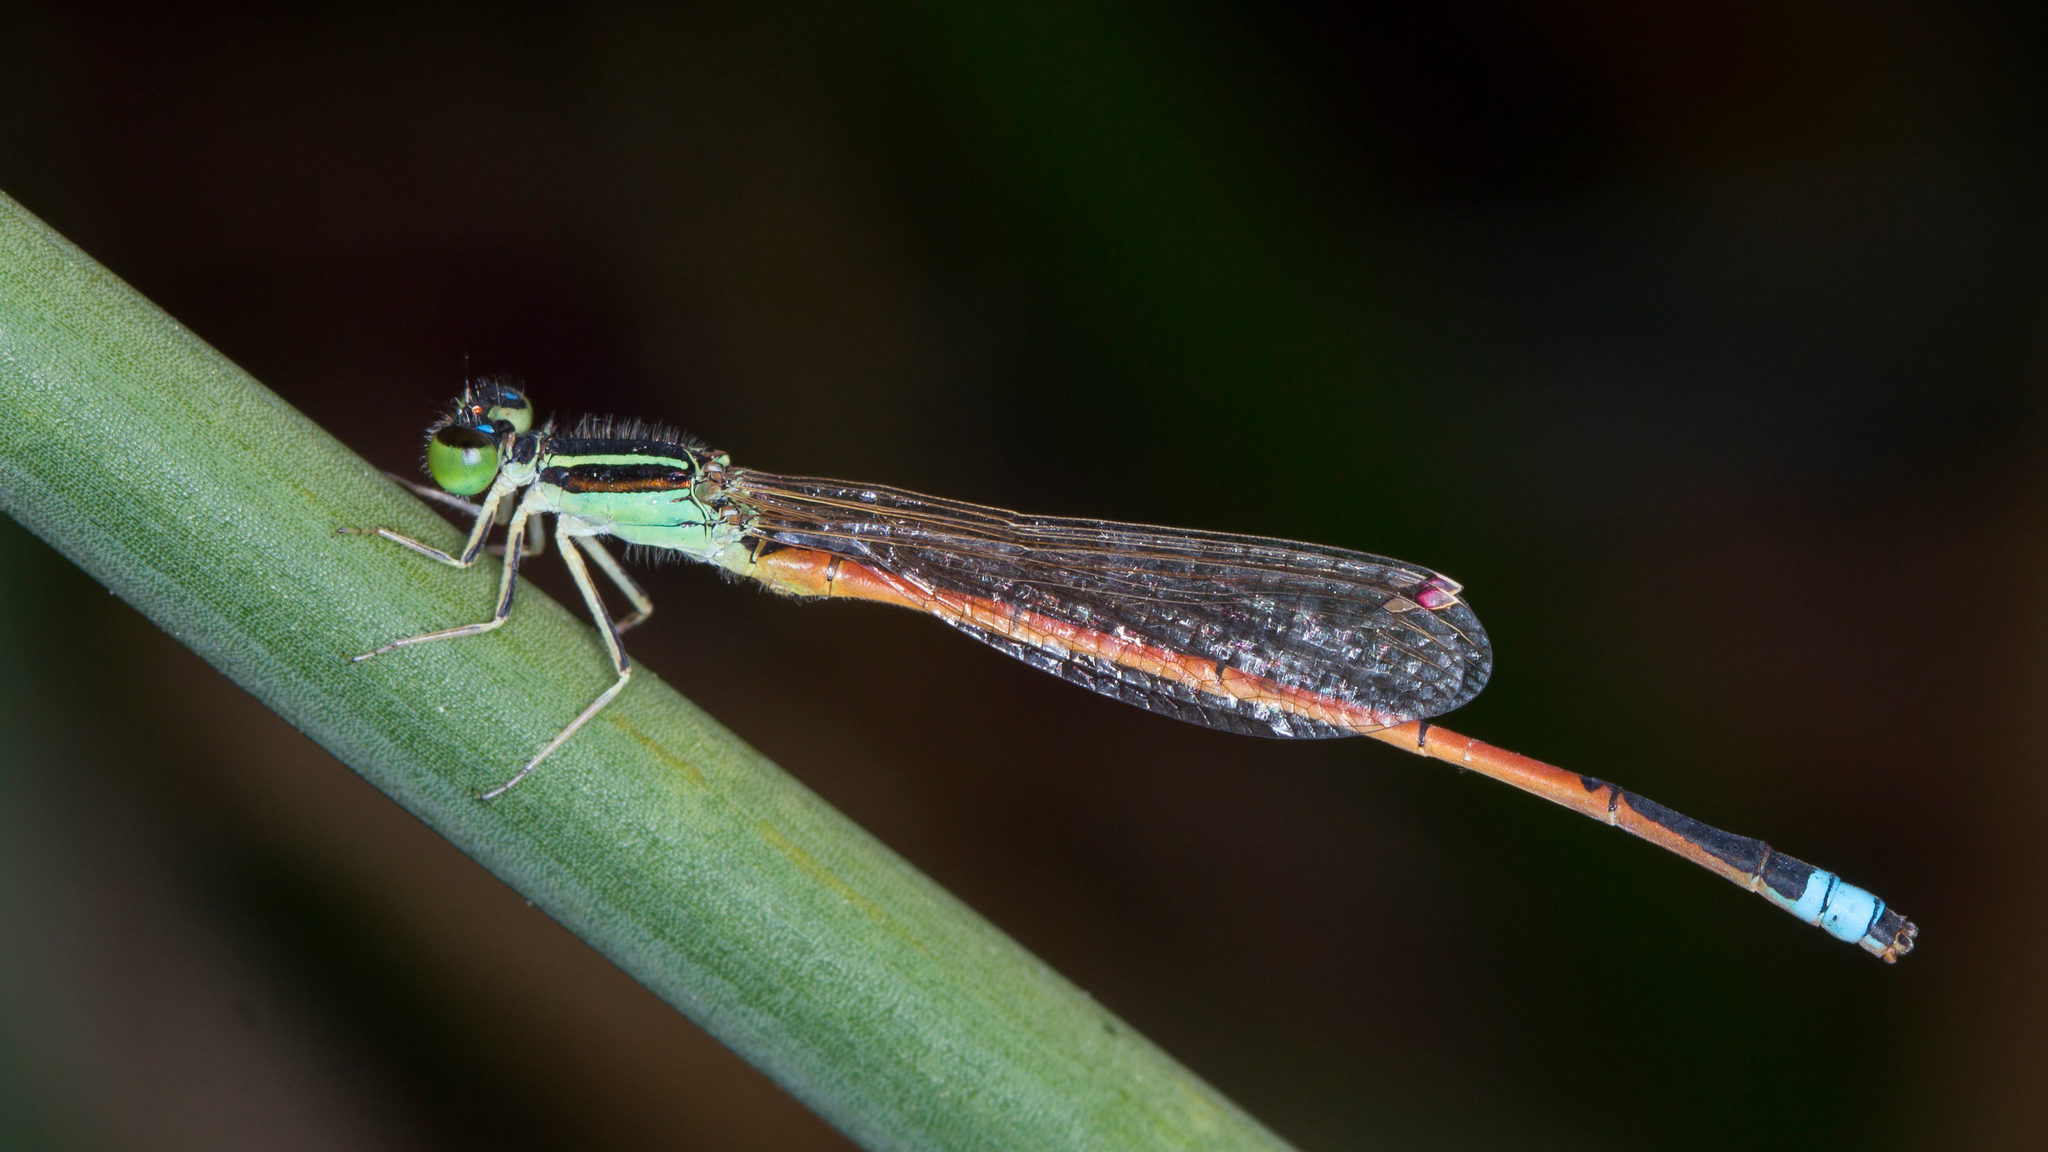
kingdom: Animalia
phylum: Arthropoda
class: Insecta
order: Odonata
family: Coenagrionidae
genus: Ischnura
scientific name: Ischnura aurora
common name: Gossamer damselfly
